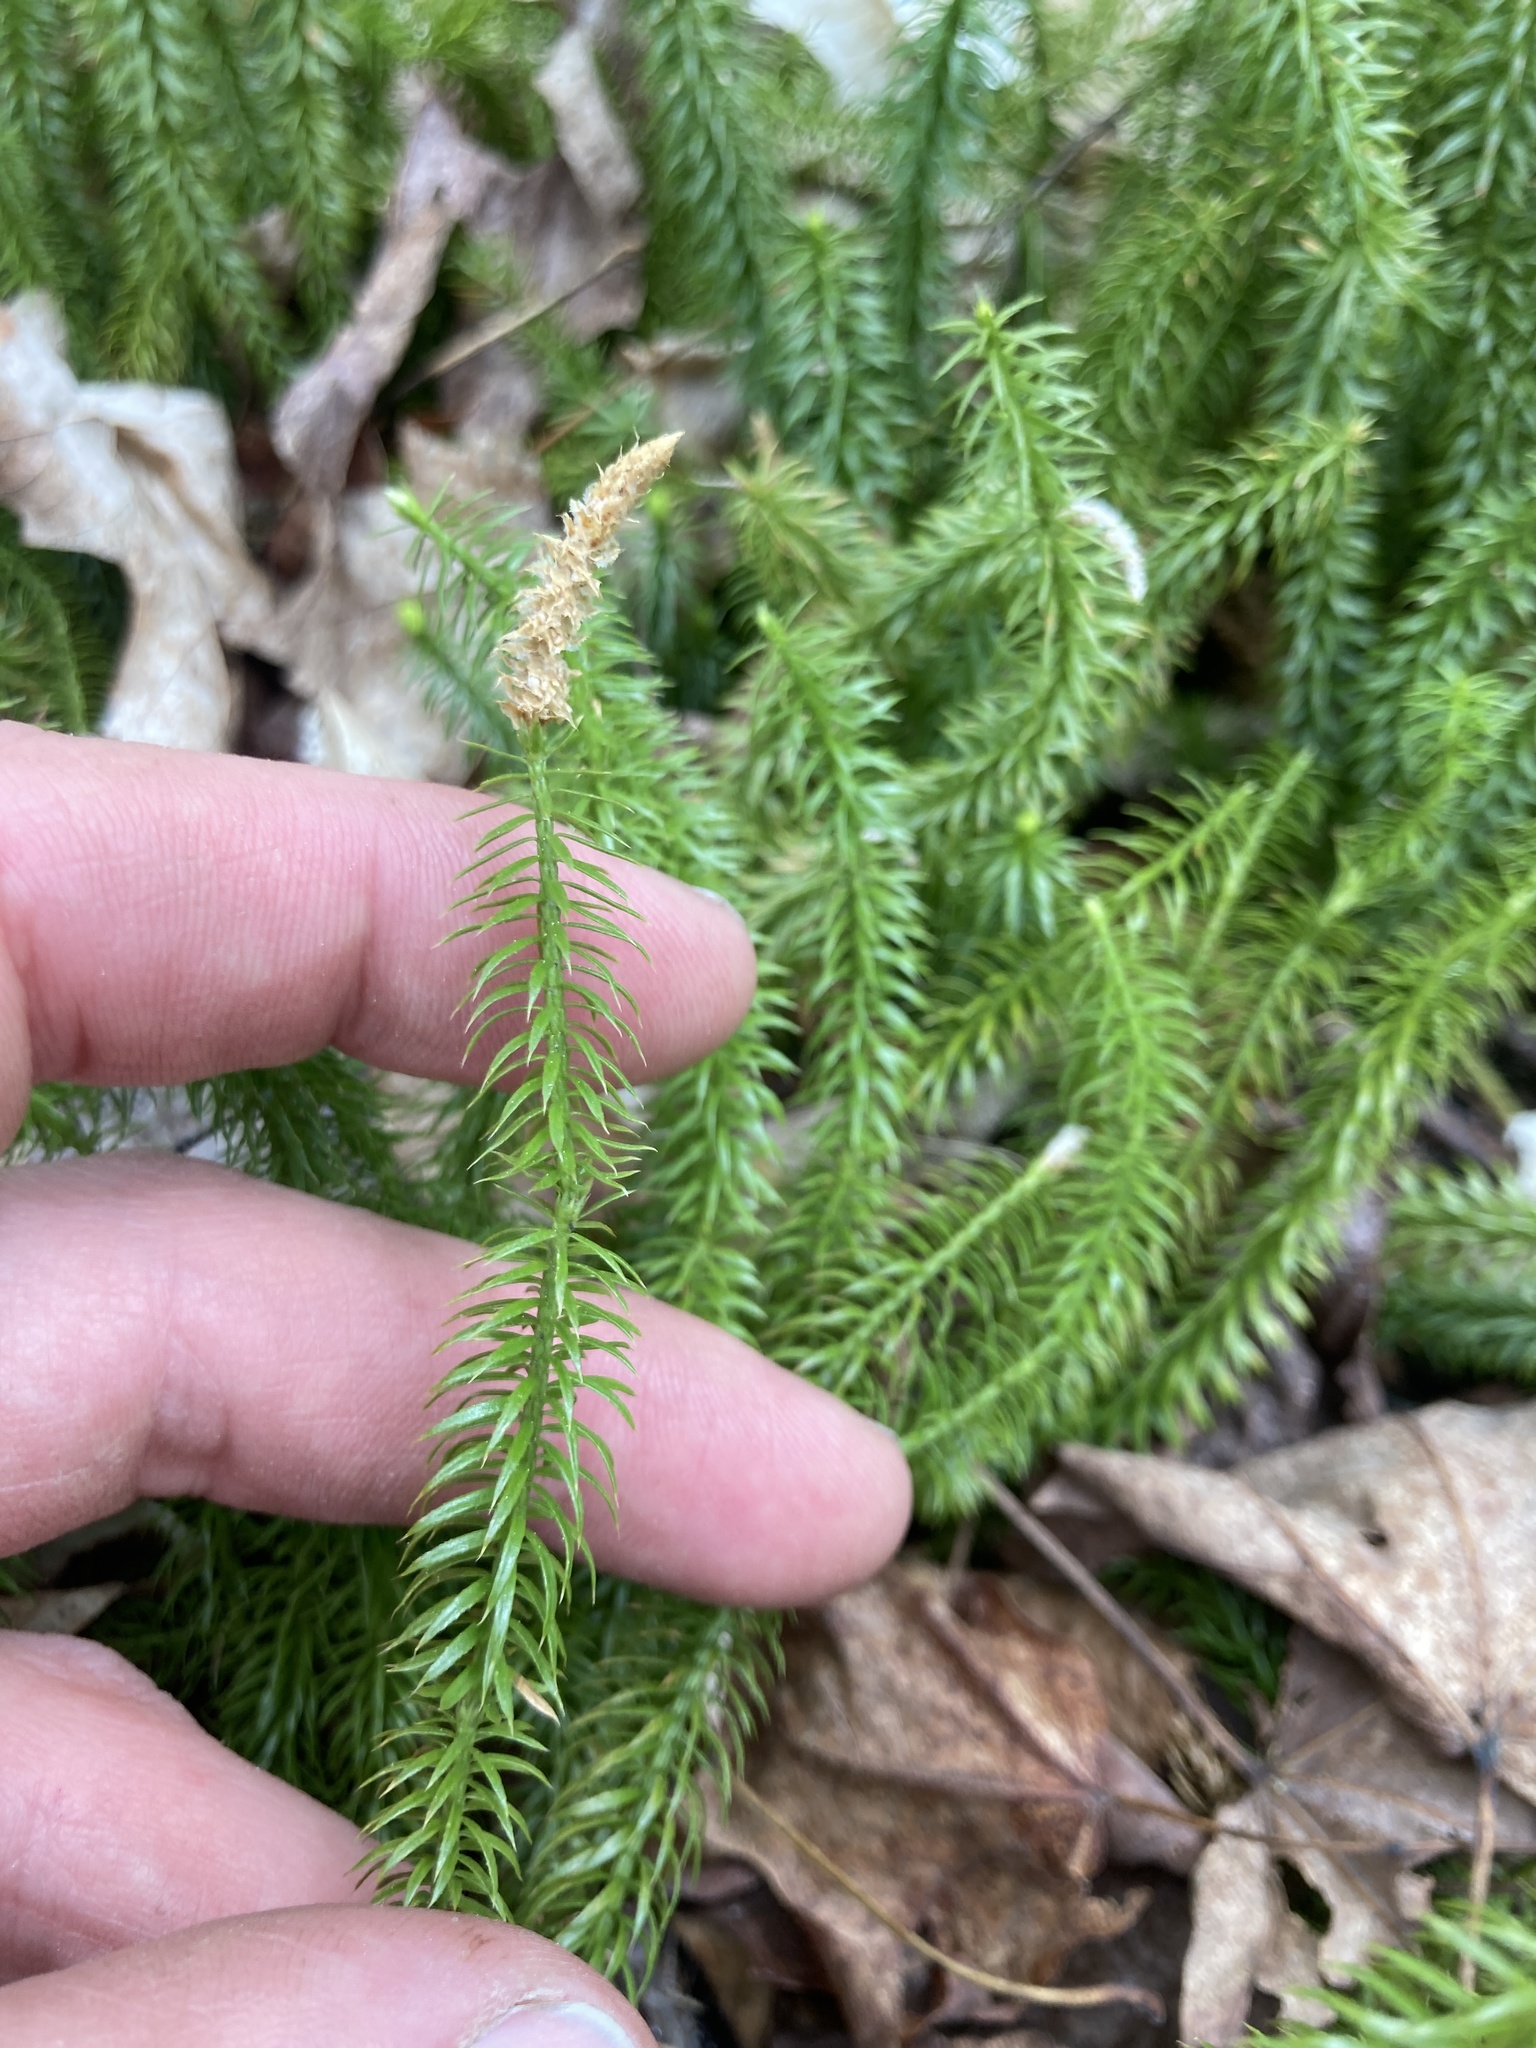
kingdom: Plantae
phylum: Tracheophyta
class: Lycopodiopsida
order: Lycopodiales
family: Lycopodiaceae
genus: Spinulum
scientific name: Spinulum annotinum
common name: Interrupted club-moss
